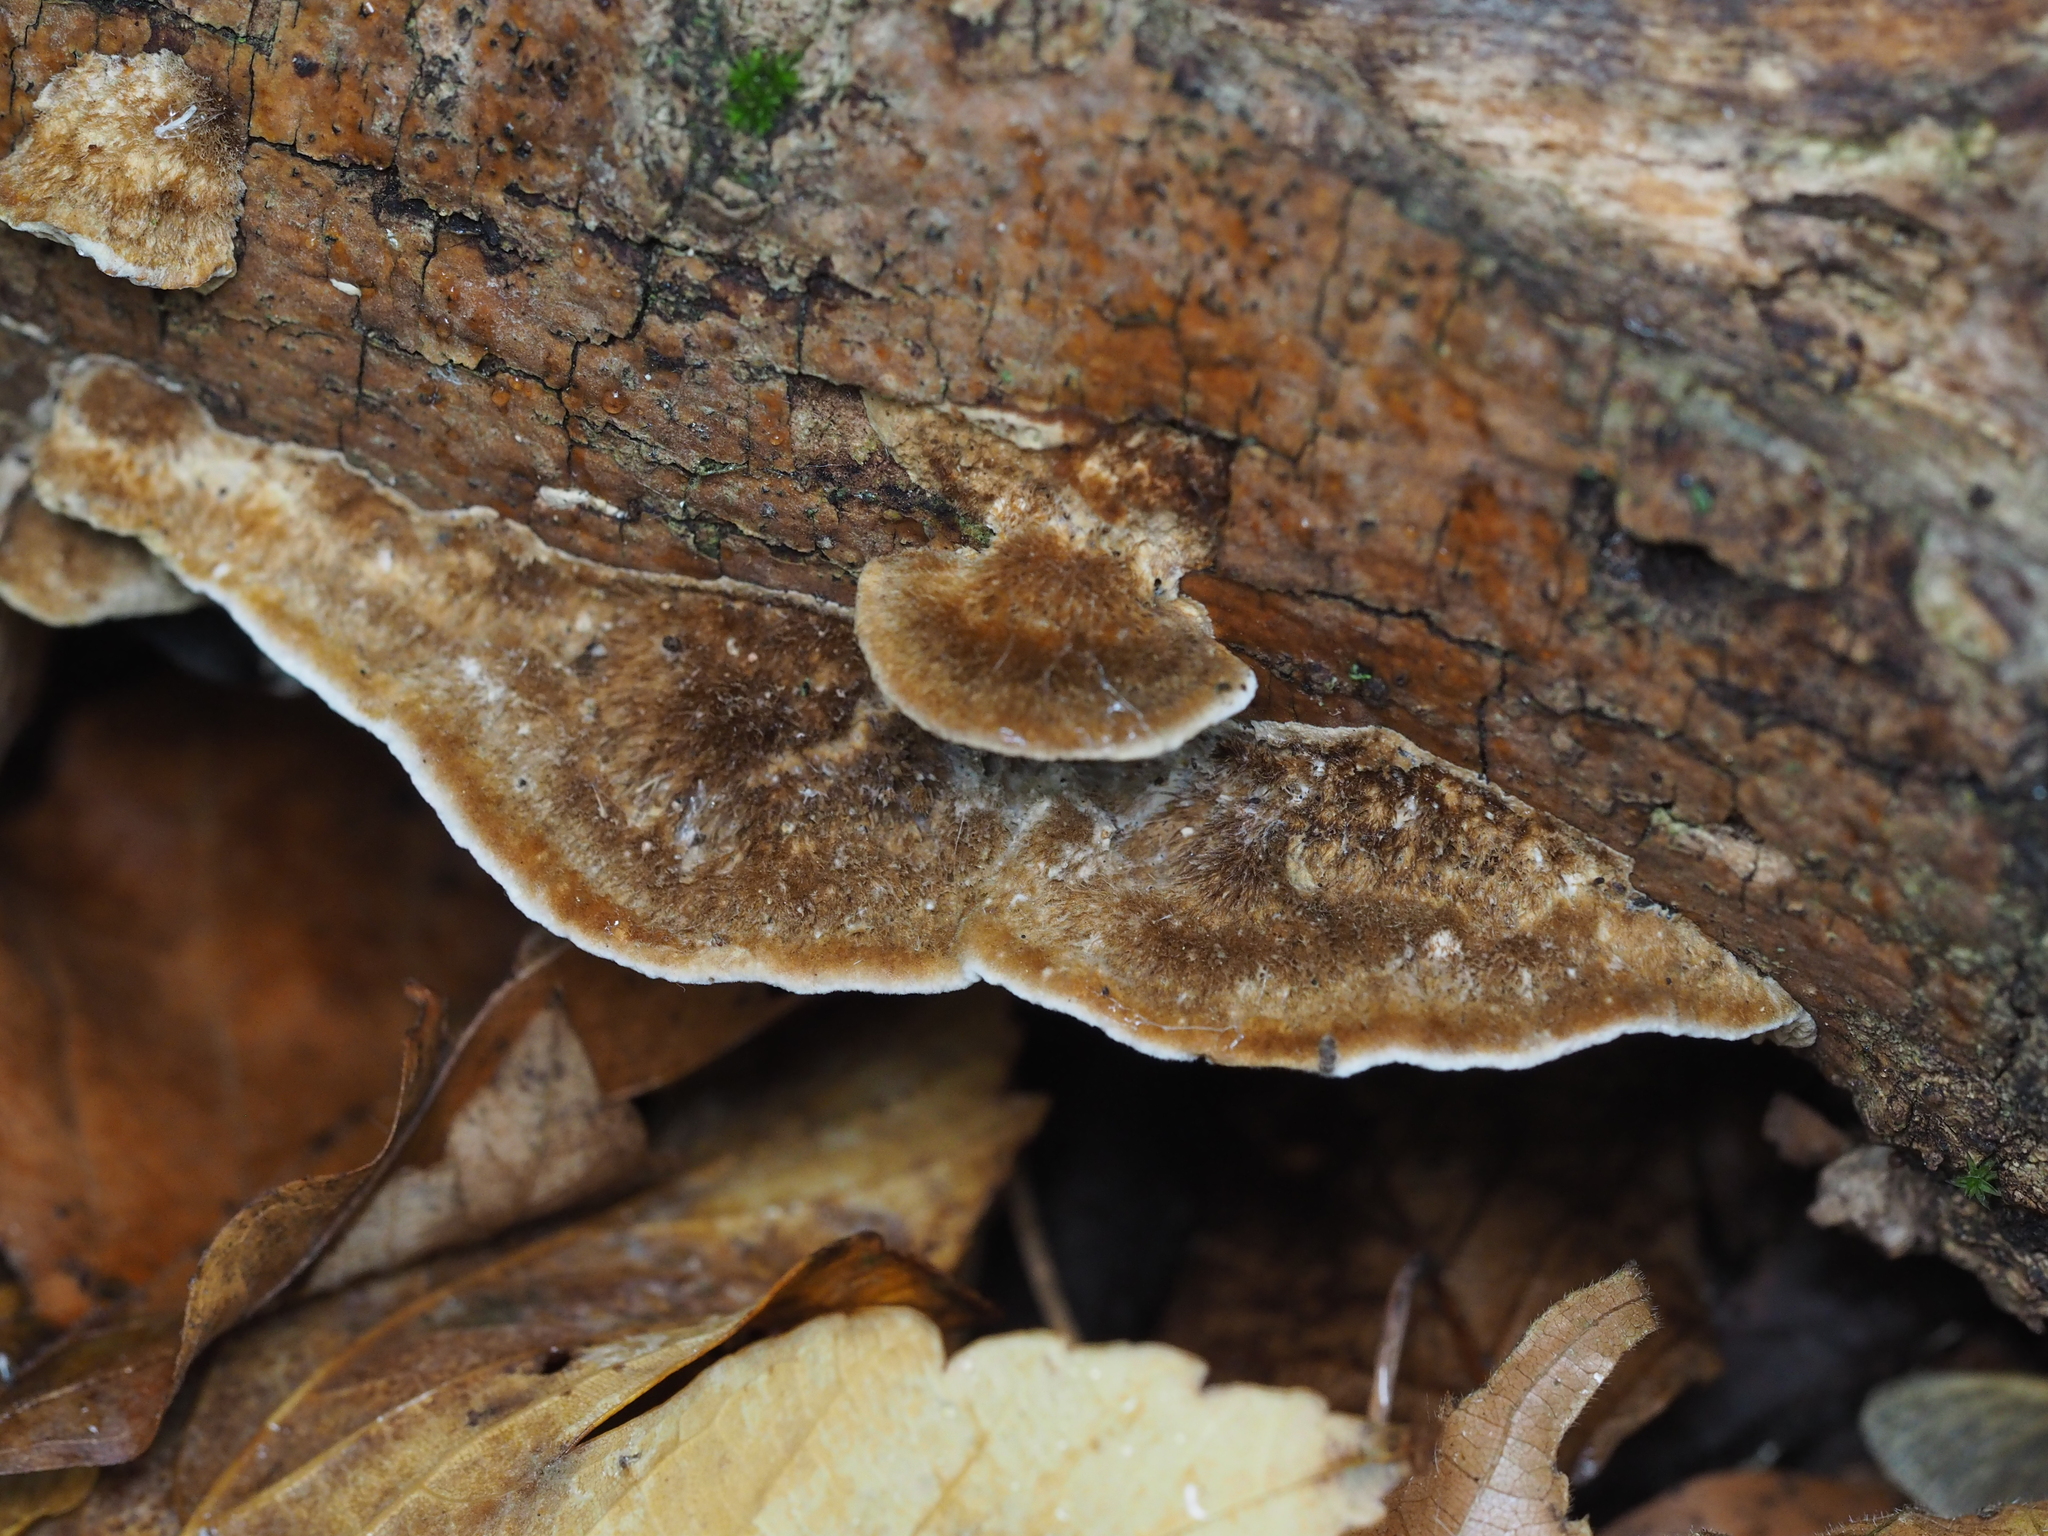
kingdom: Fungi
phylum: Basidiomycota
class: Agaricomycetes
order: Polyporales
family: Polyporaceae
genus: Coriolopsis
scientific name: Coriolopsis gallica
